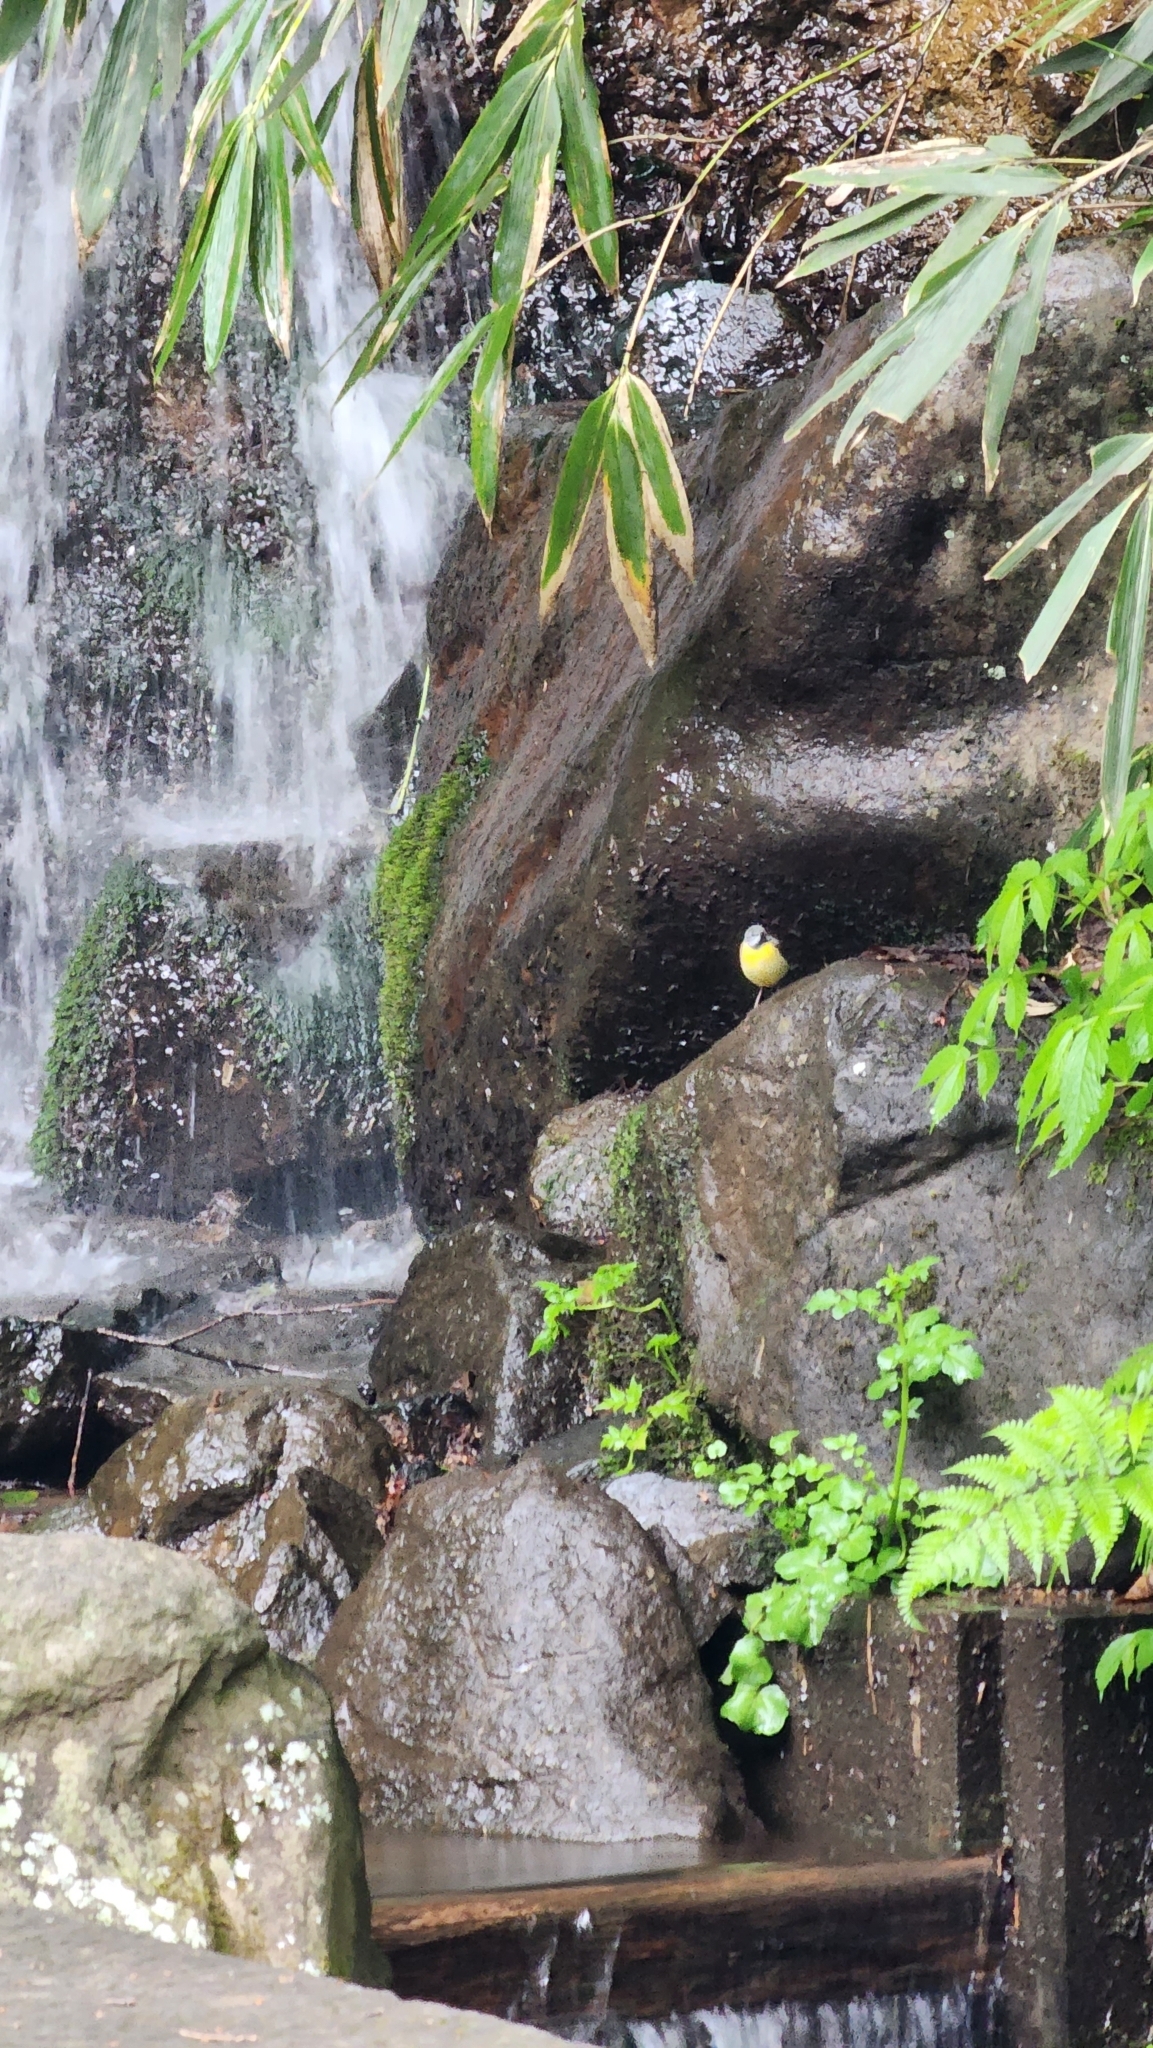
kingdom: Animalia
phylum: Chordata
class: Aves
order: Passeriformes
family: Motacillidae
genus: Motacilla
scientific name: Motacilla cinerea
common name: Grey wagtail
